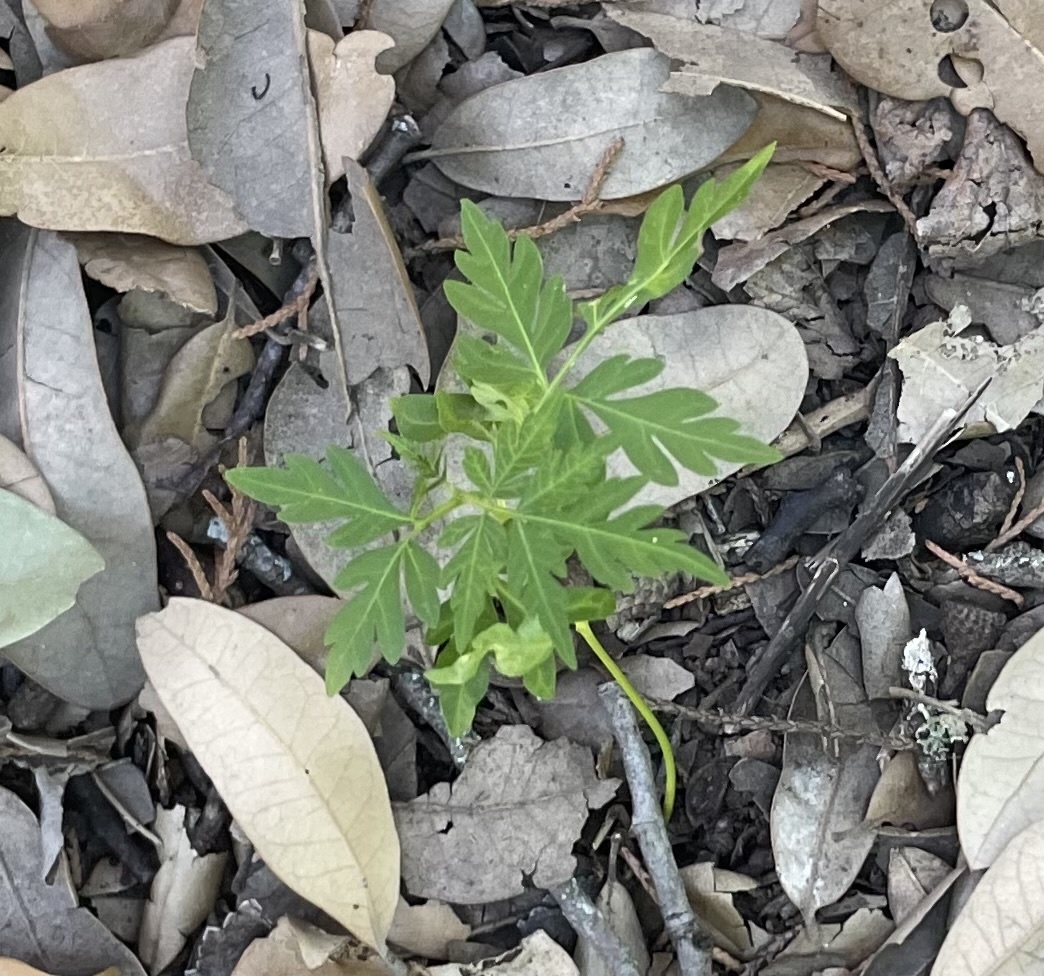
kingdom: Plantae
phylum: Tracheophyta
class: Magnoliopsida
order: Sapindales
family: Meliaceae
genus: Melia
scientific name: Melia azedarach
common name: Chinaberrytree
